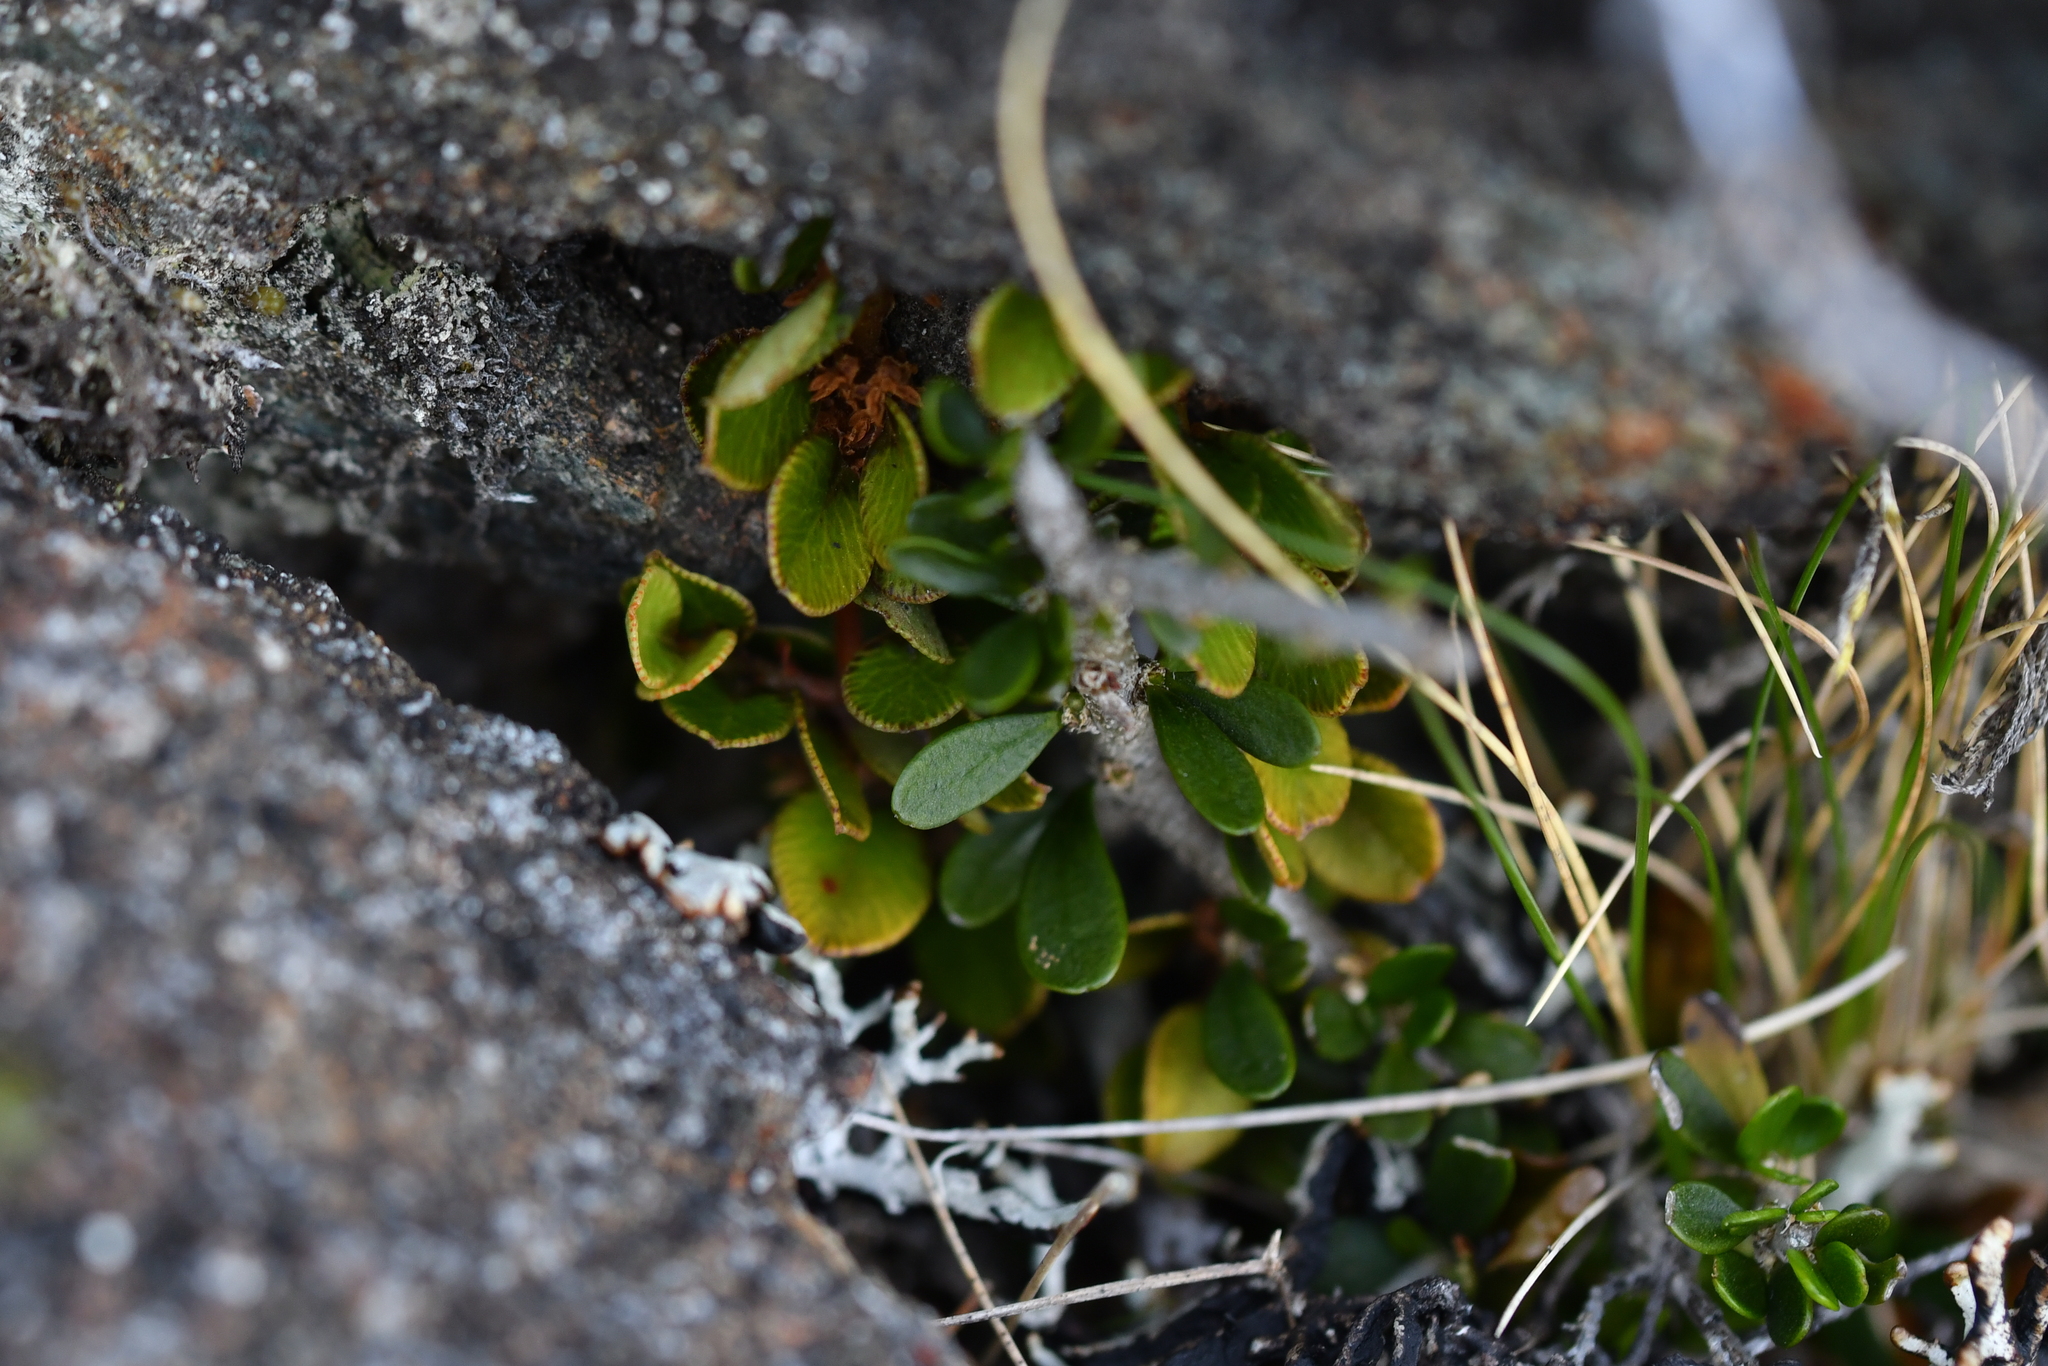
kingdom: Plantae
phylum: Tracheophyta
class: Magnoliopsida
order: Malpighiales
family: Violaceae
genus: Melicytus
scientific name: Melicytus alpinus
